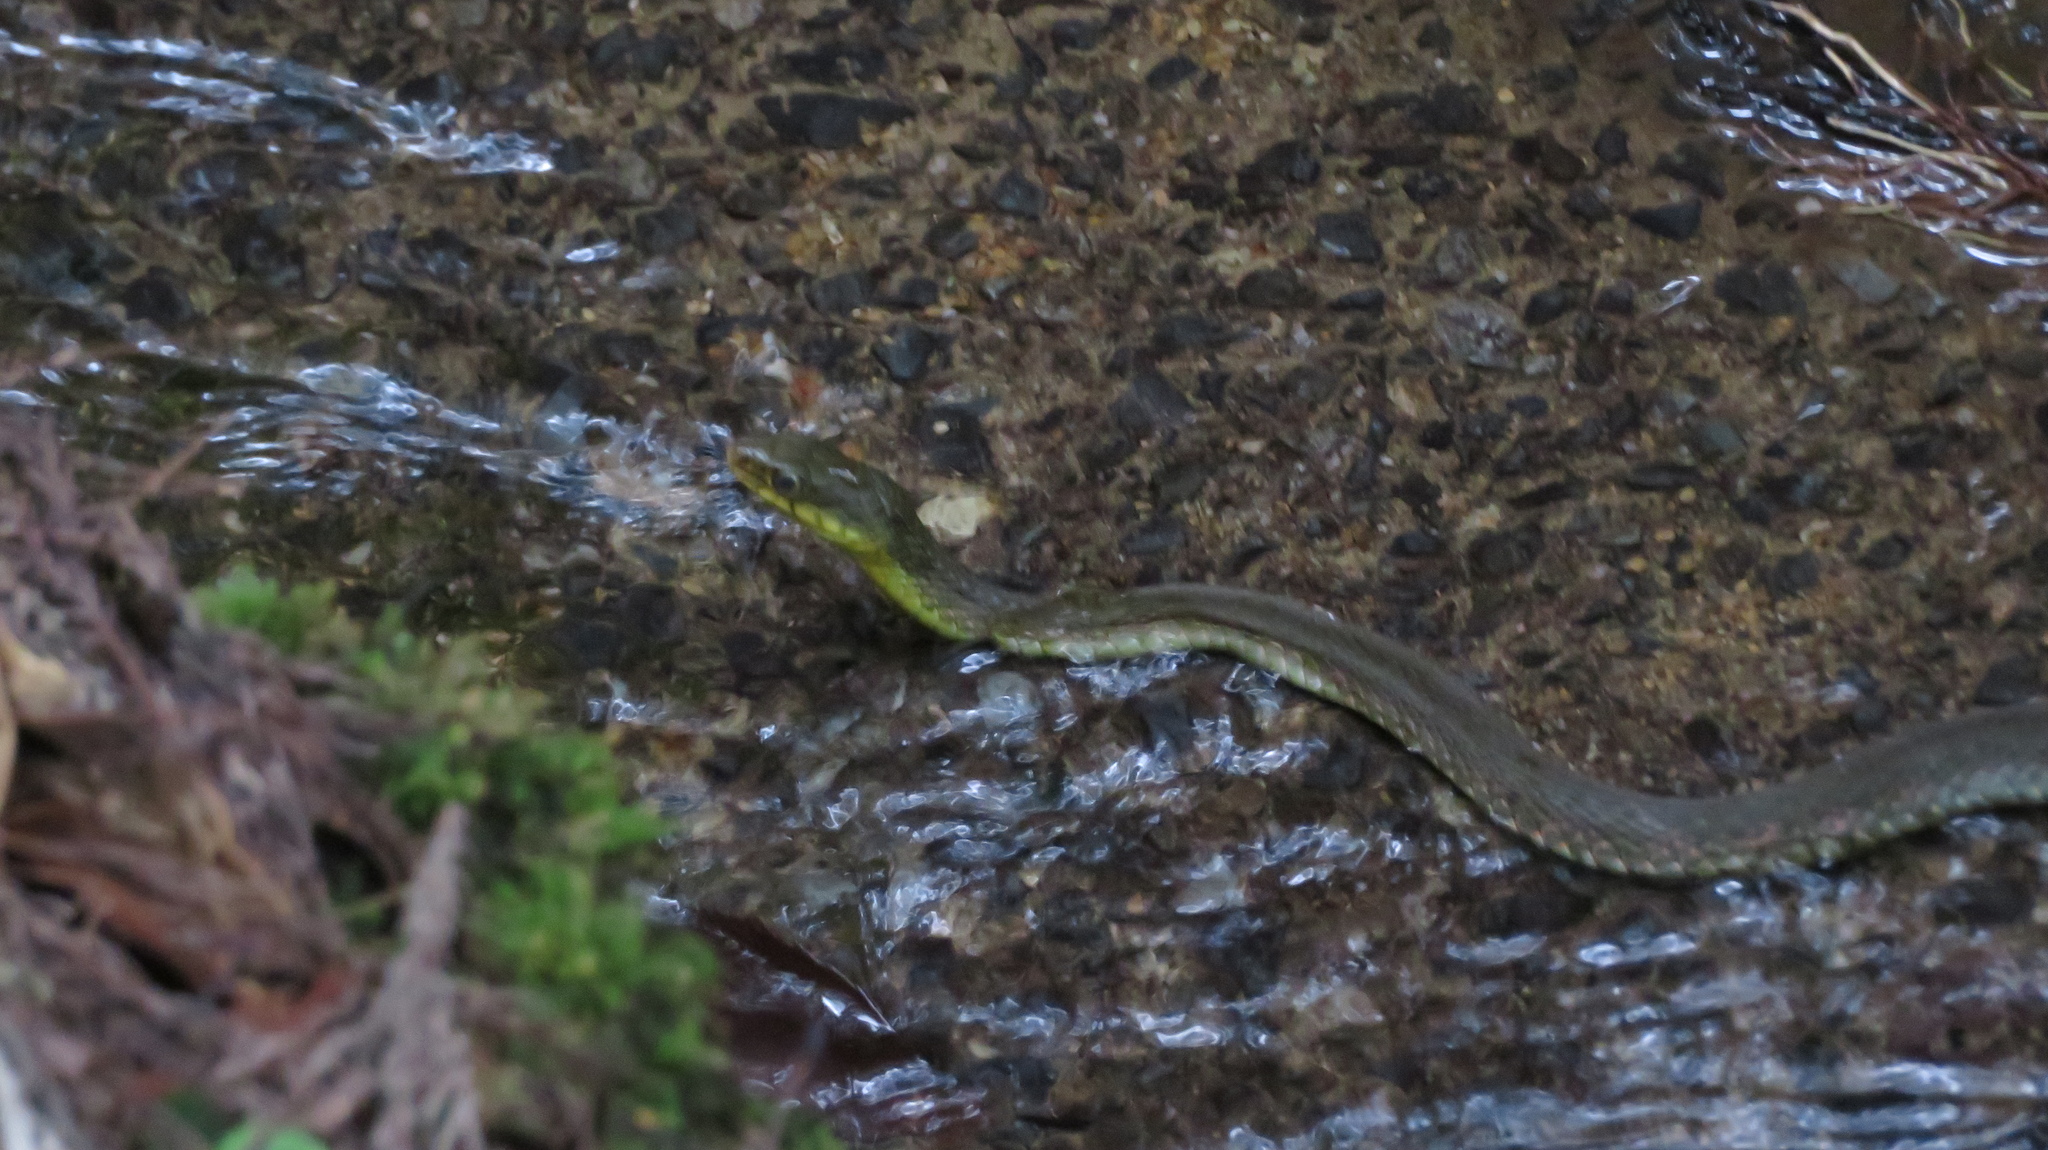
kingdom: Animalia
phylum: Chordata
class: Squamata
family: Colubridae
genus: Rhabdophis
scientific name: Rhabdophis tigrinus
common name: Tiger keelback
